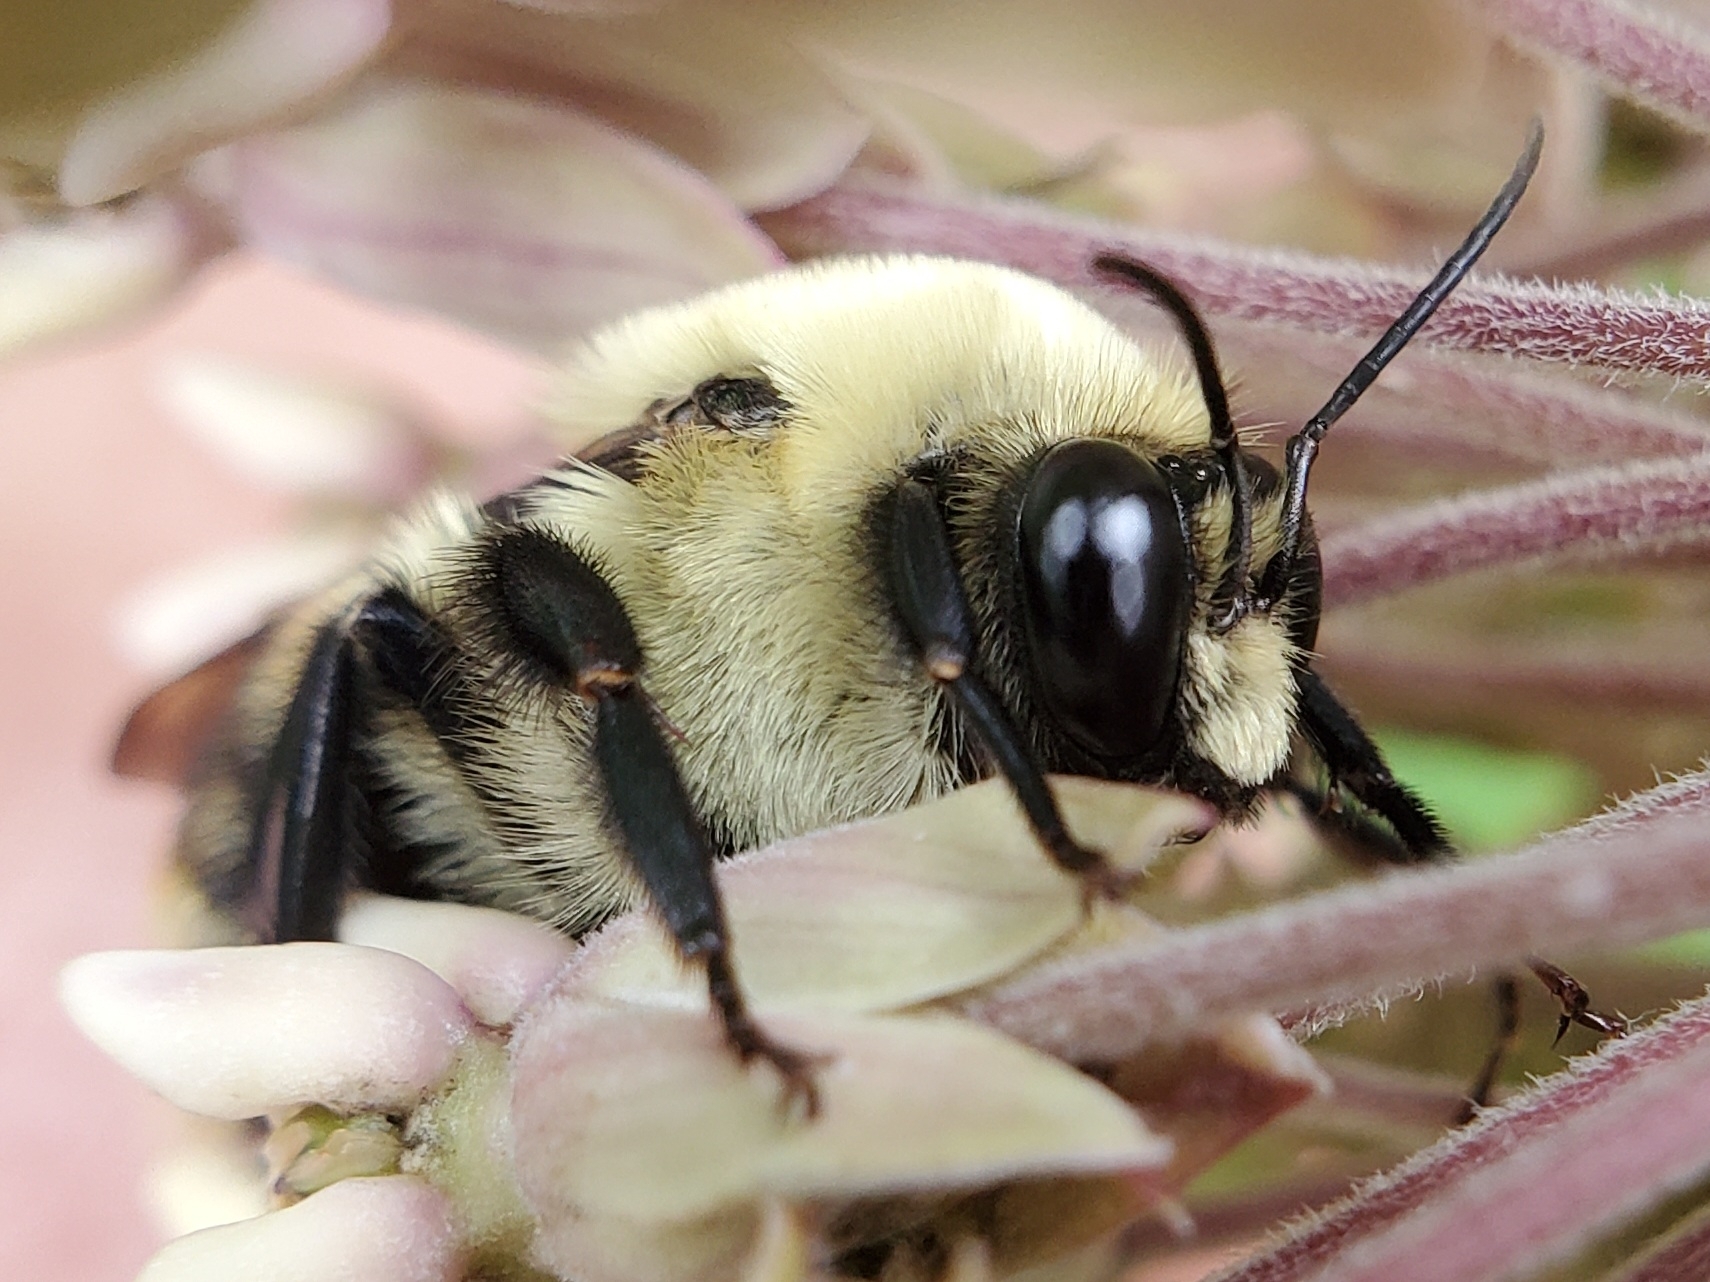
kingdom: Animalia
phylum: Arthropoda
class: Insecta
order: Hymenoptera
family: Apidae
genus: Bombus
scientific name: Bombus griseocollis
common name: Brown-belted bumble bee
